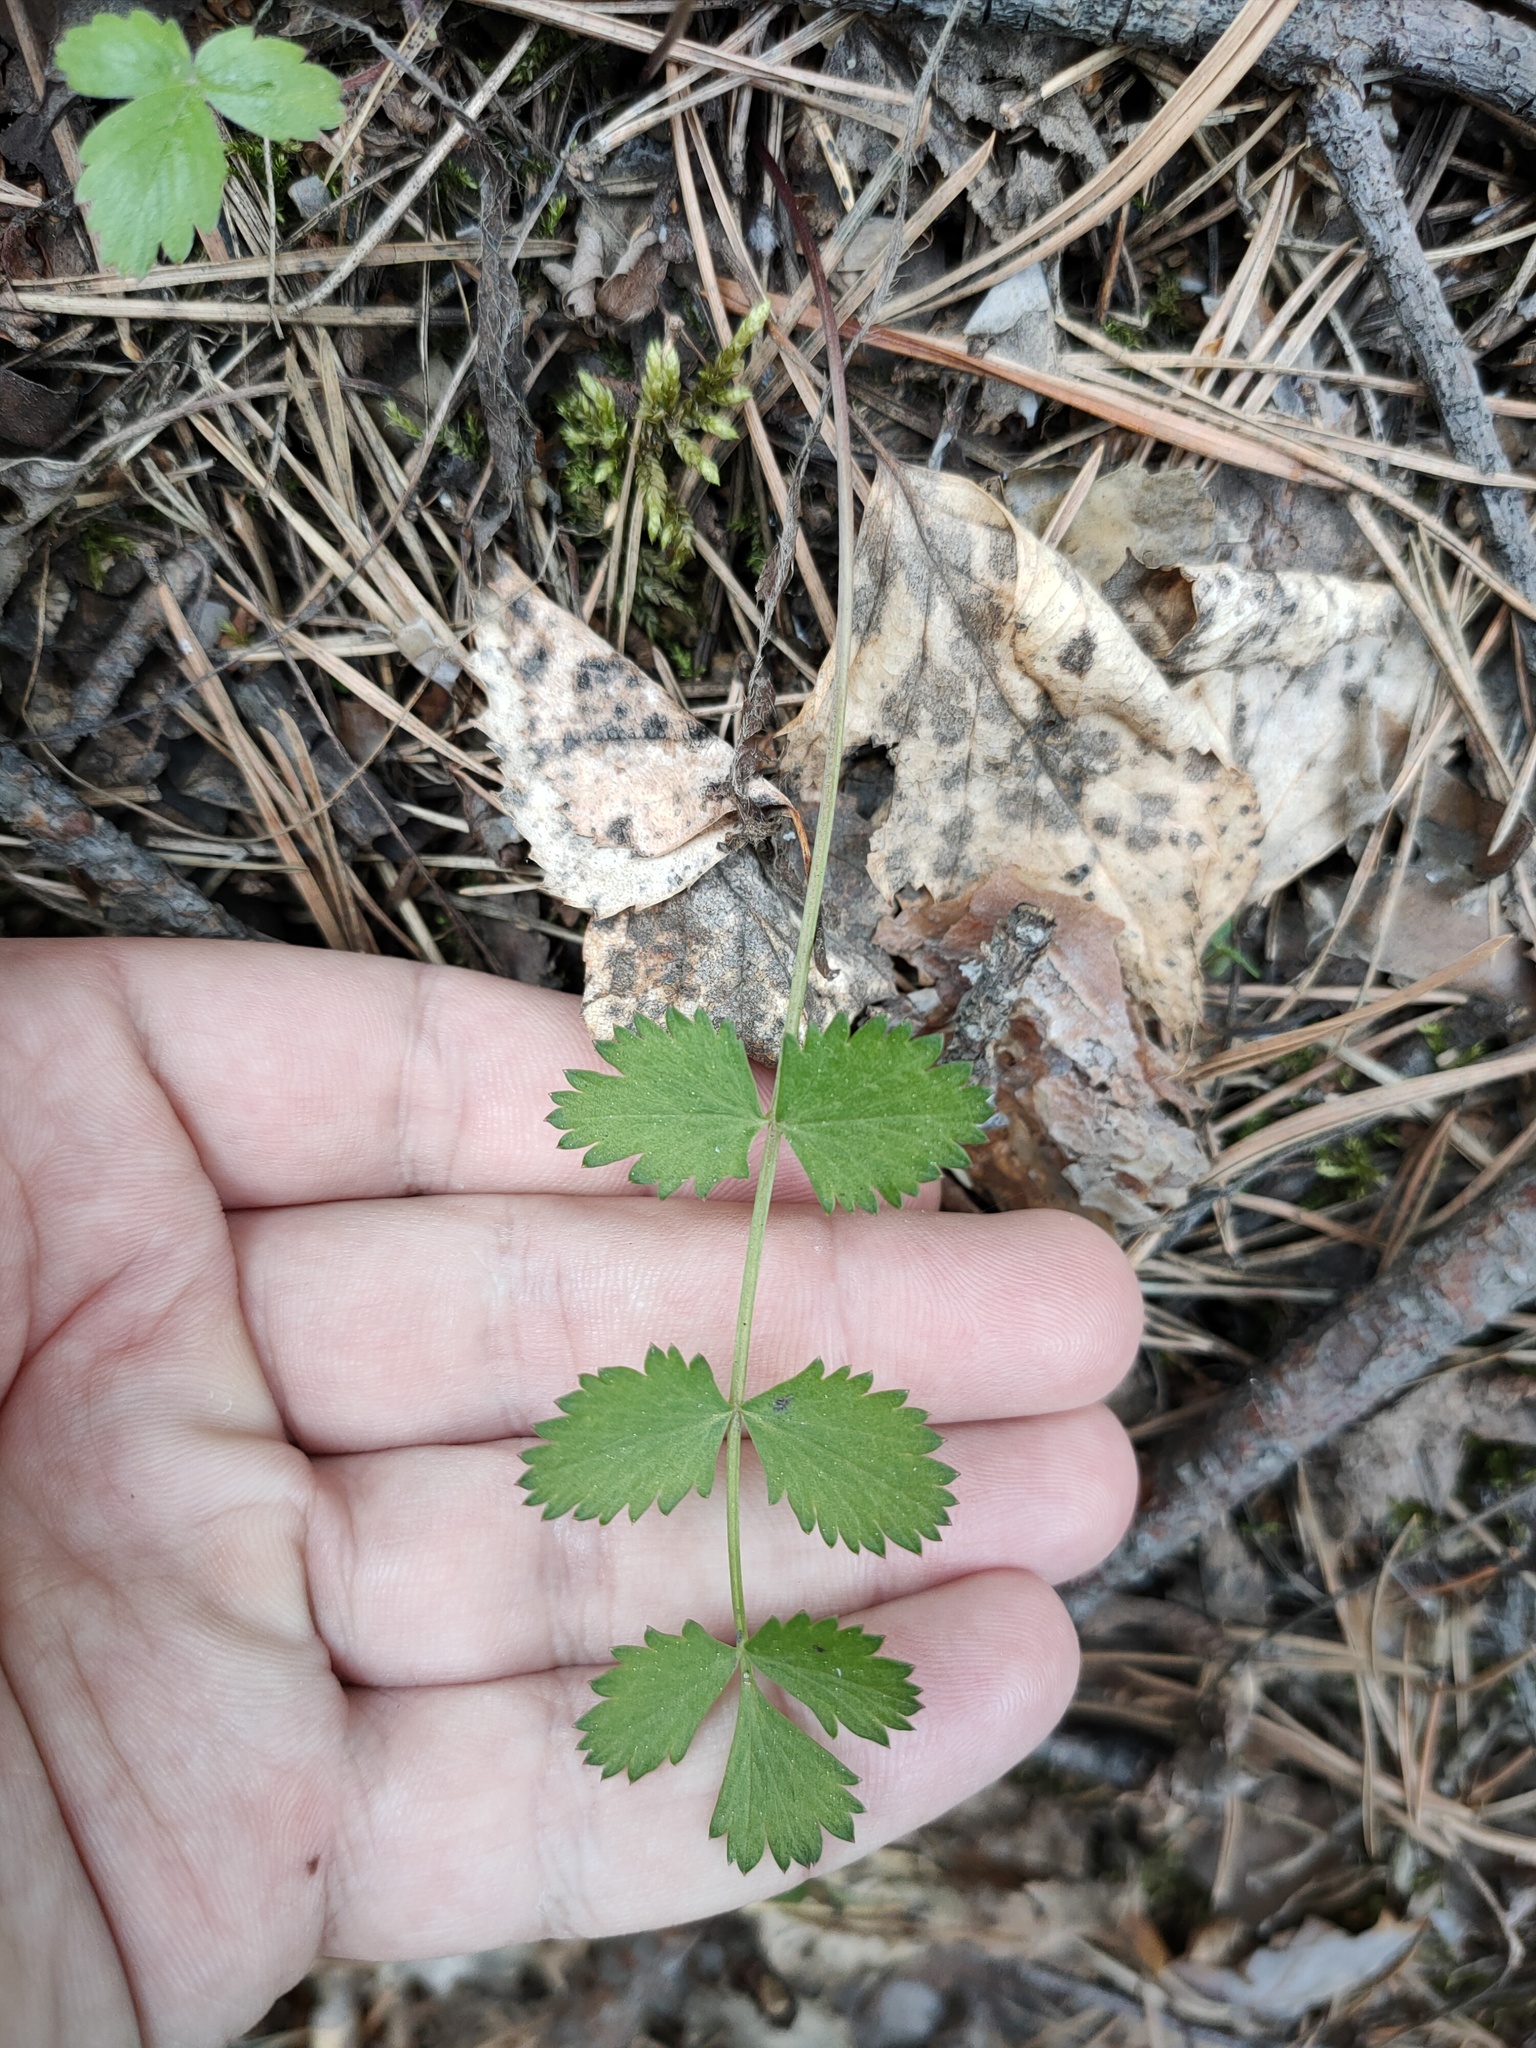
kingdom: Plantae
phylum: Tracheophyta
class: Magnoliopsida
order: Apiales
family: Apiaceae
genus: Pimpinella
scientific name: Pimpinella saxifraga
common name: Burnet-saxifrage
